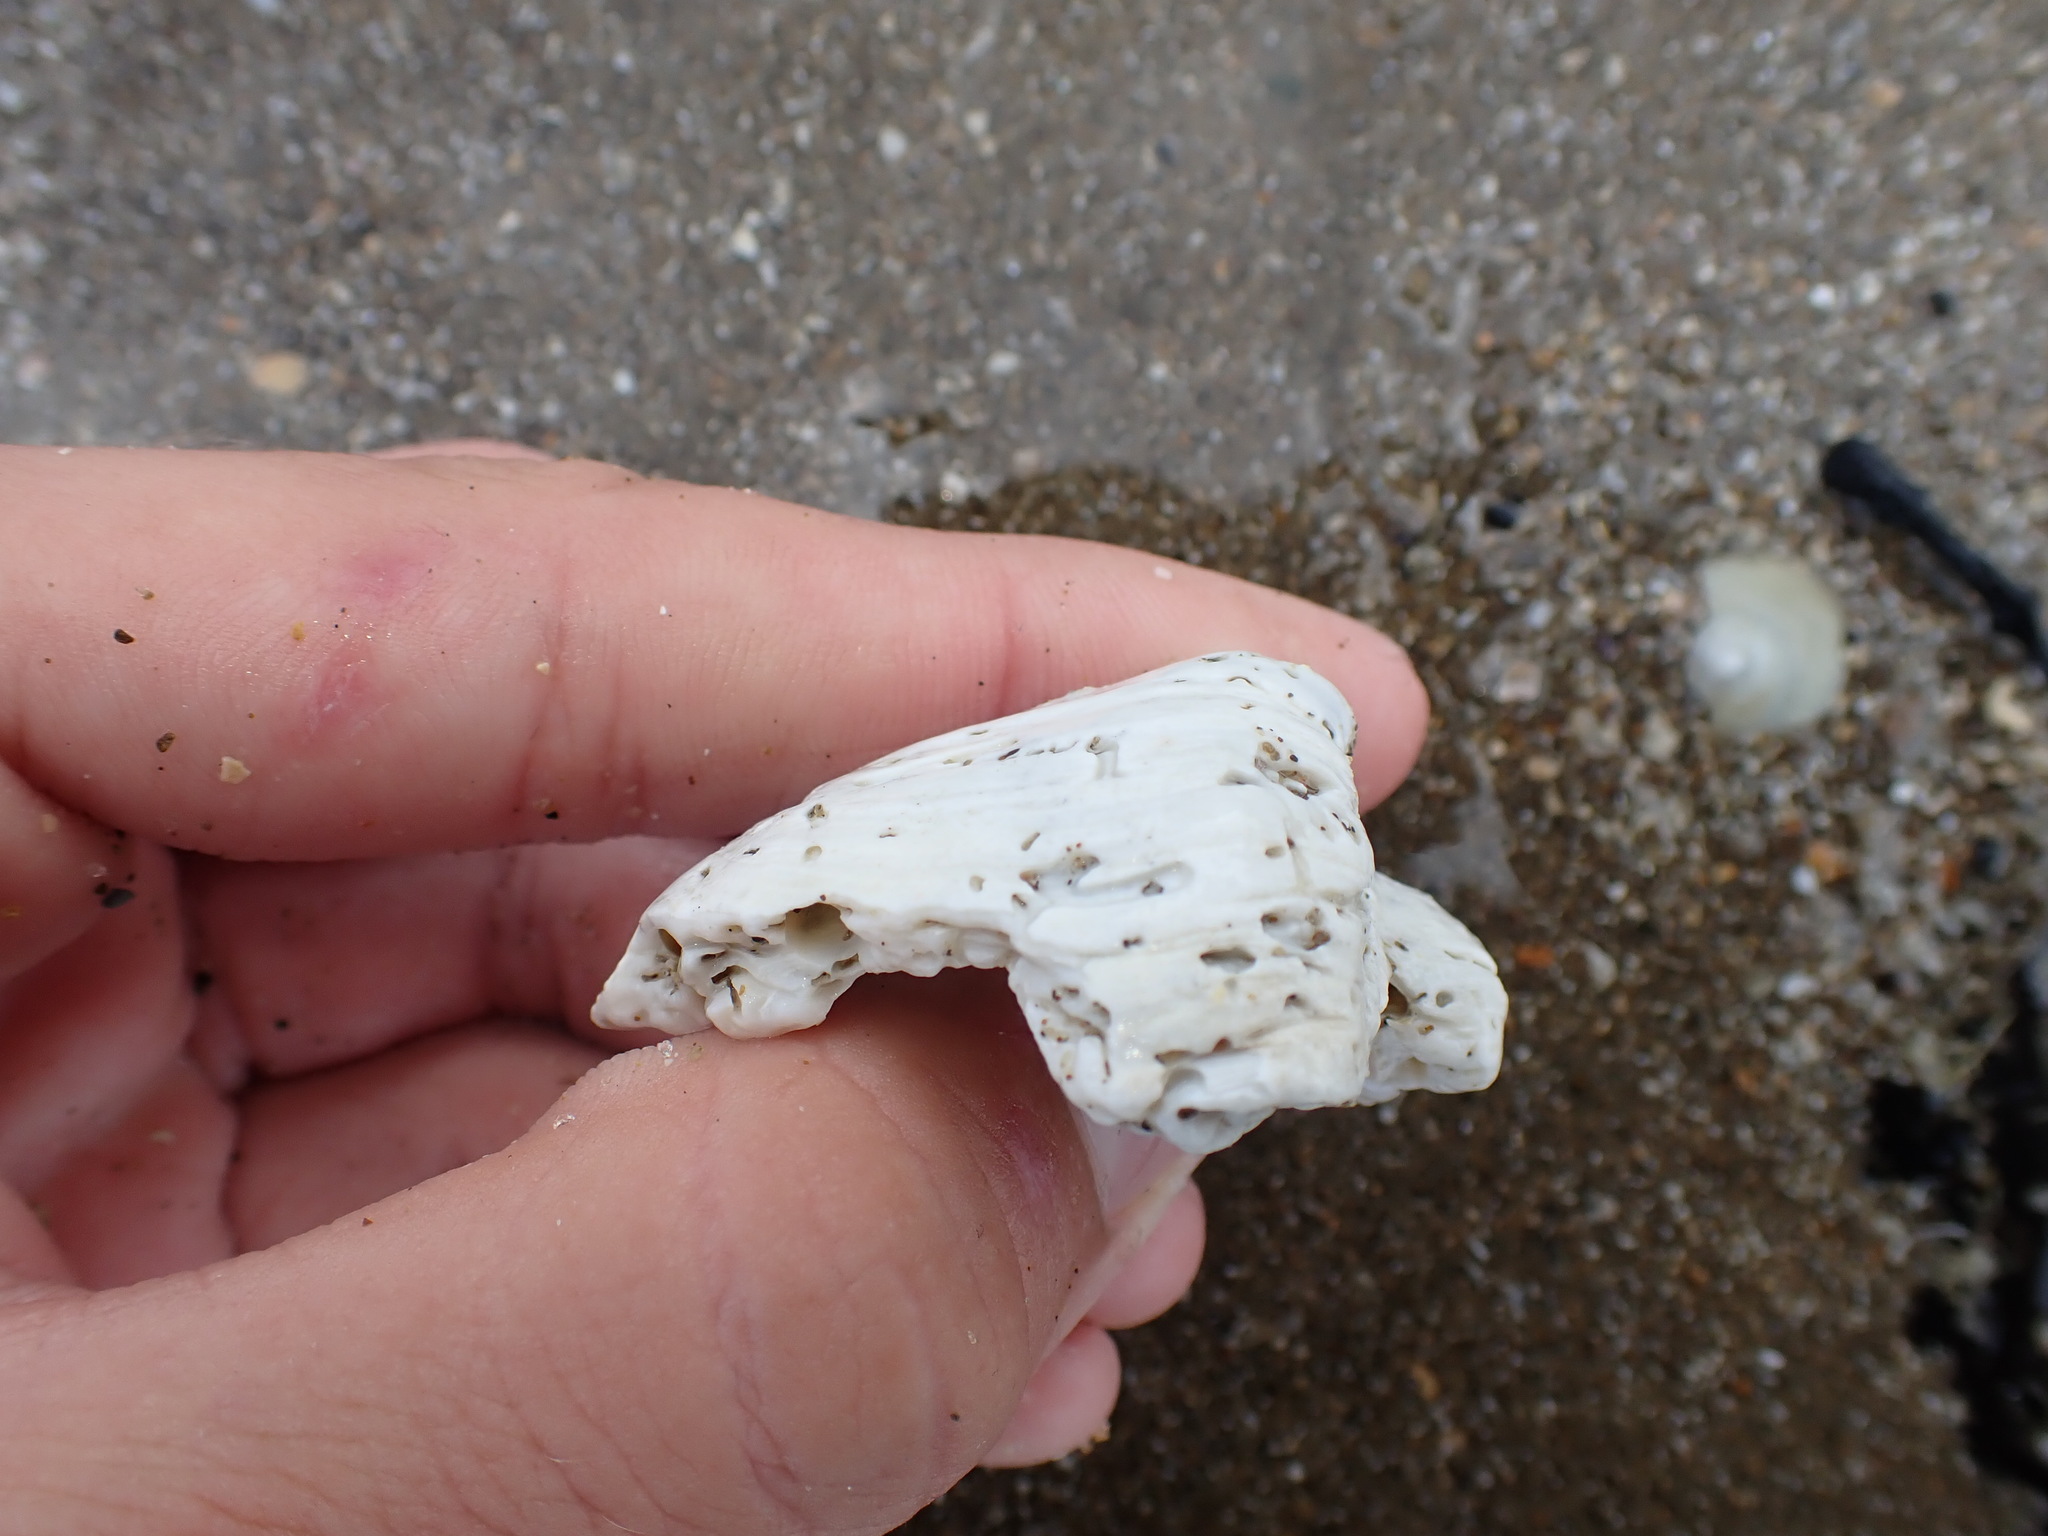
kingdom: Animalia
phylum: Mollusca
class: Bivalvia
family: Cleidothaeridae
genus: Cleidothaerus
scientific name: Cleidothaerus albidus
